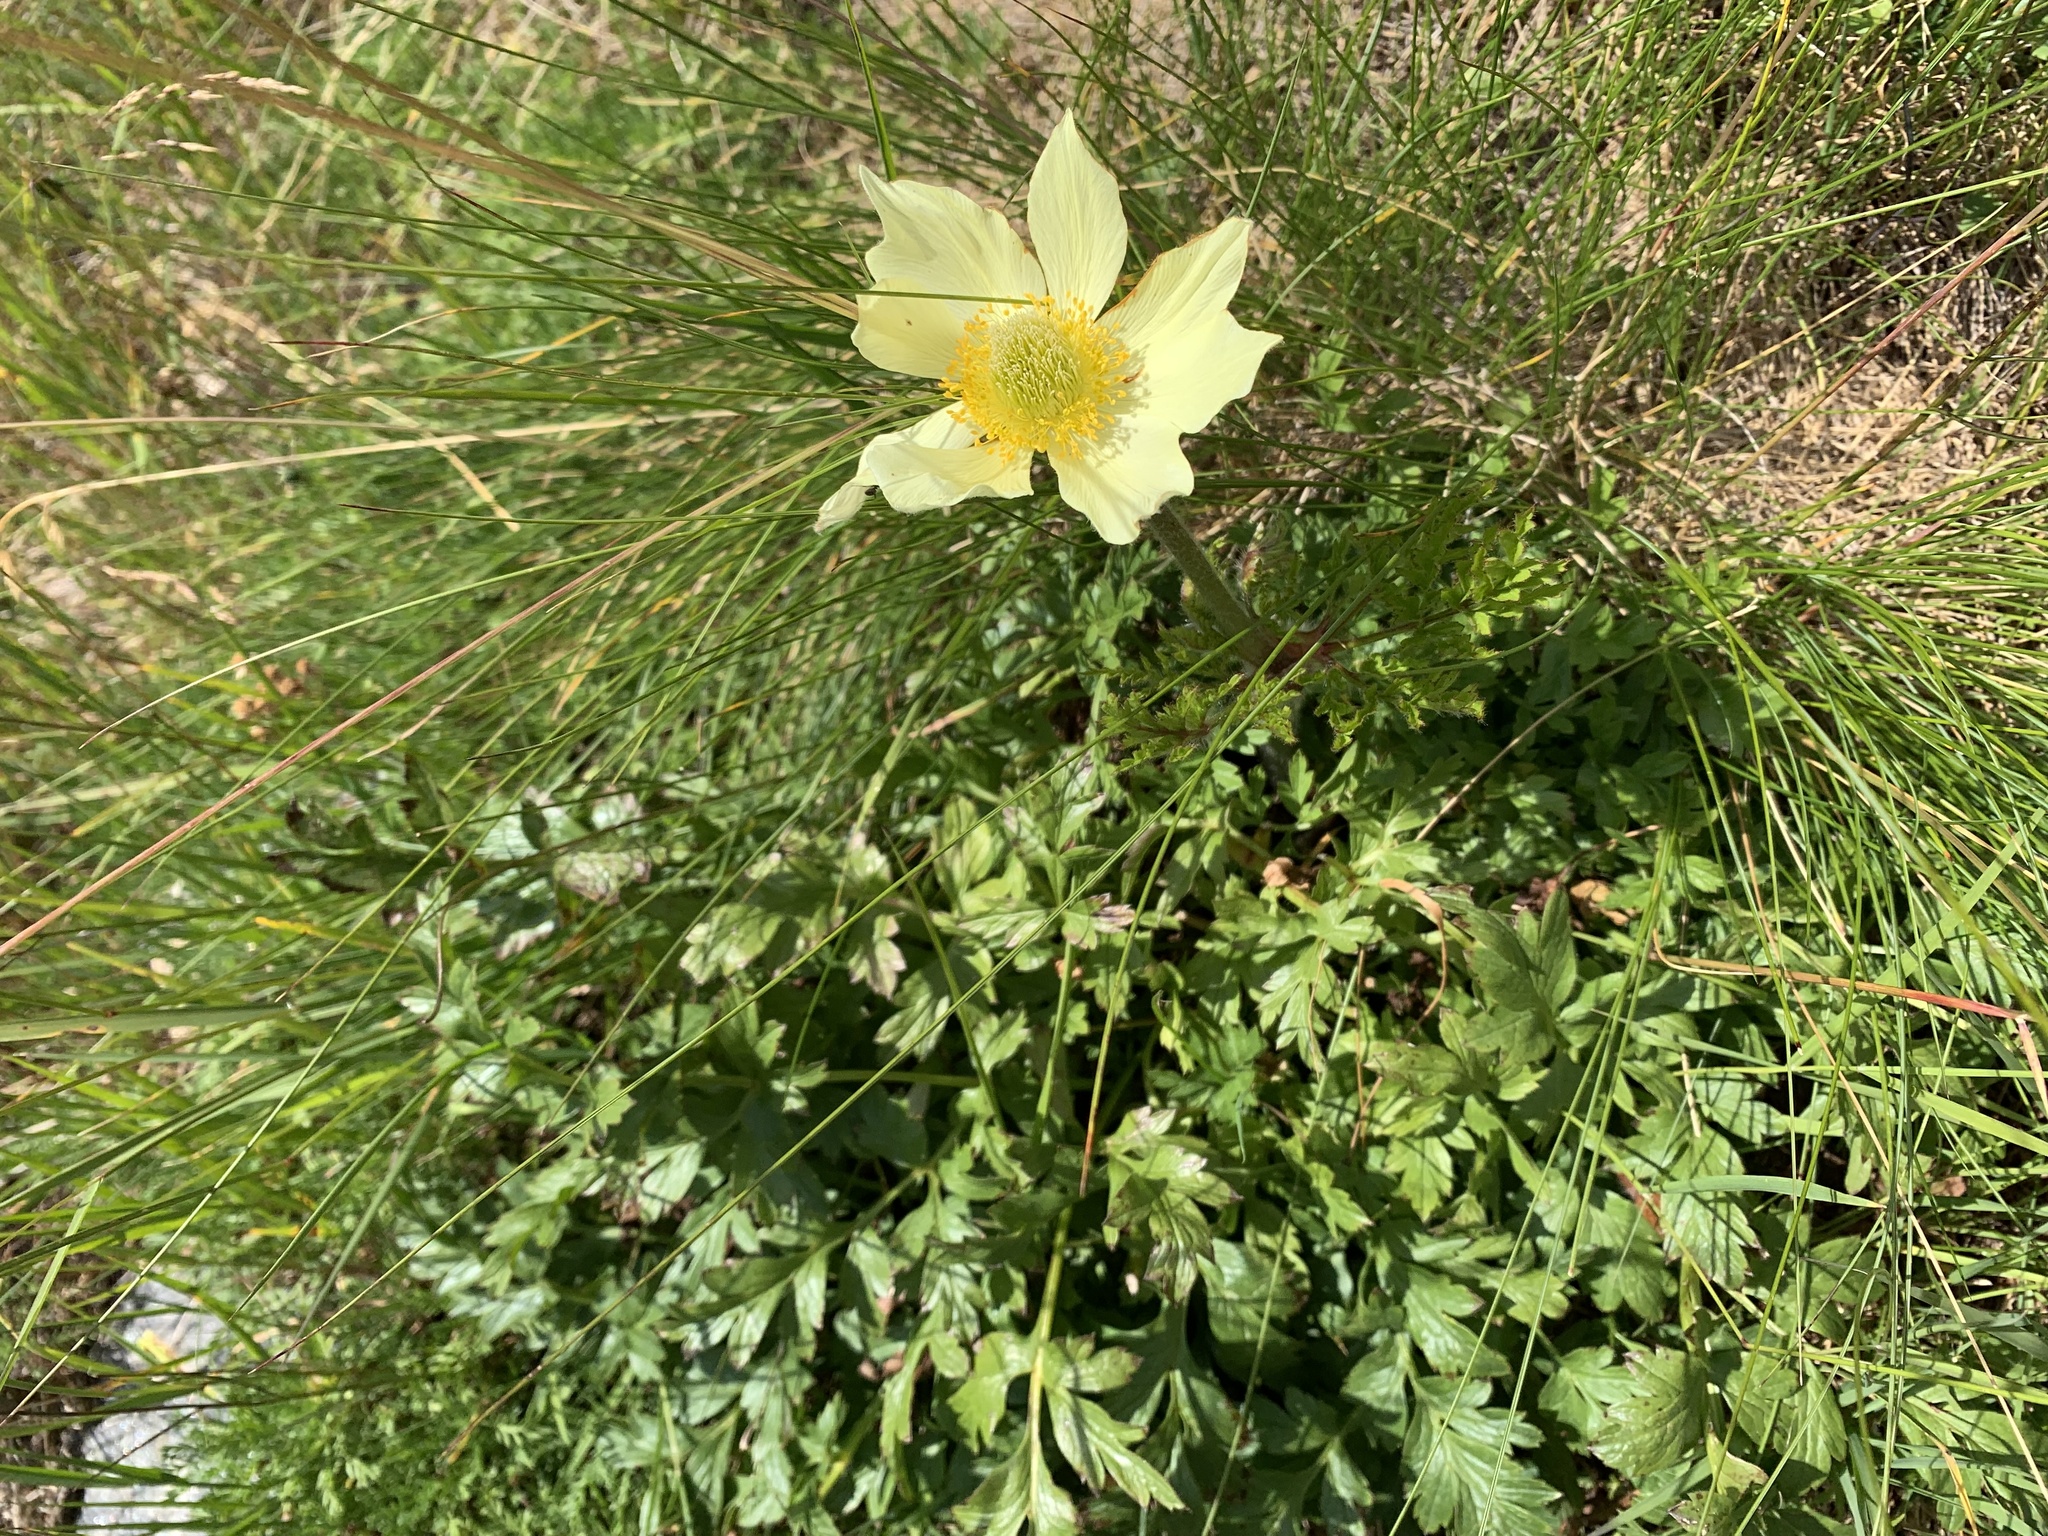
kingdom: Plantae
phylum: Tracheophyta
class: Magnoliopsida
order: Ranunculales
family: Ranunculaceae
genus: Pulsatilla
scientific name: Pulsatilla alpina
